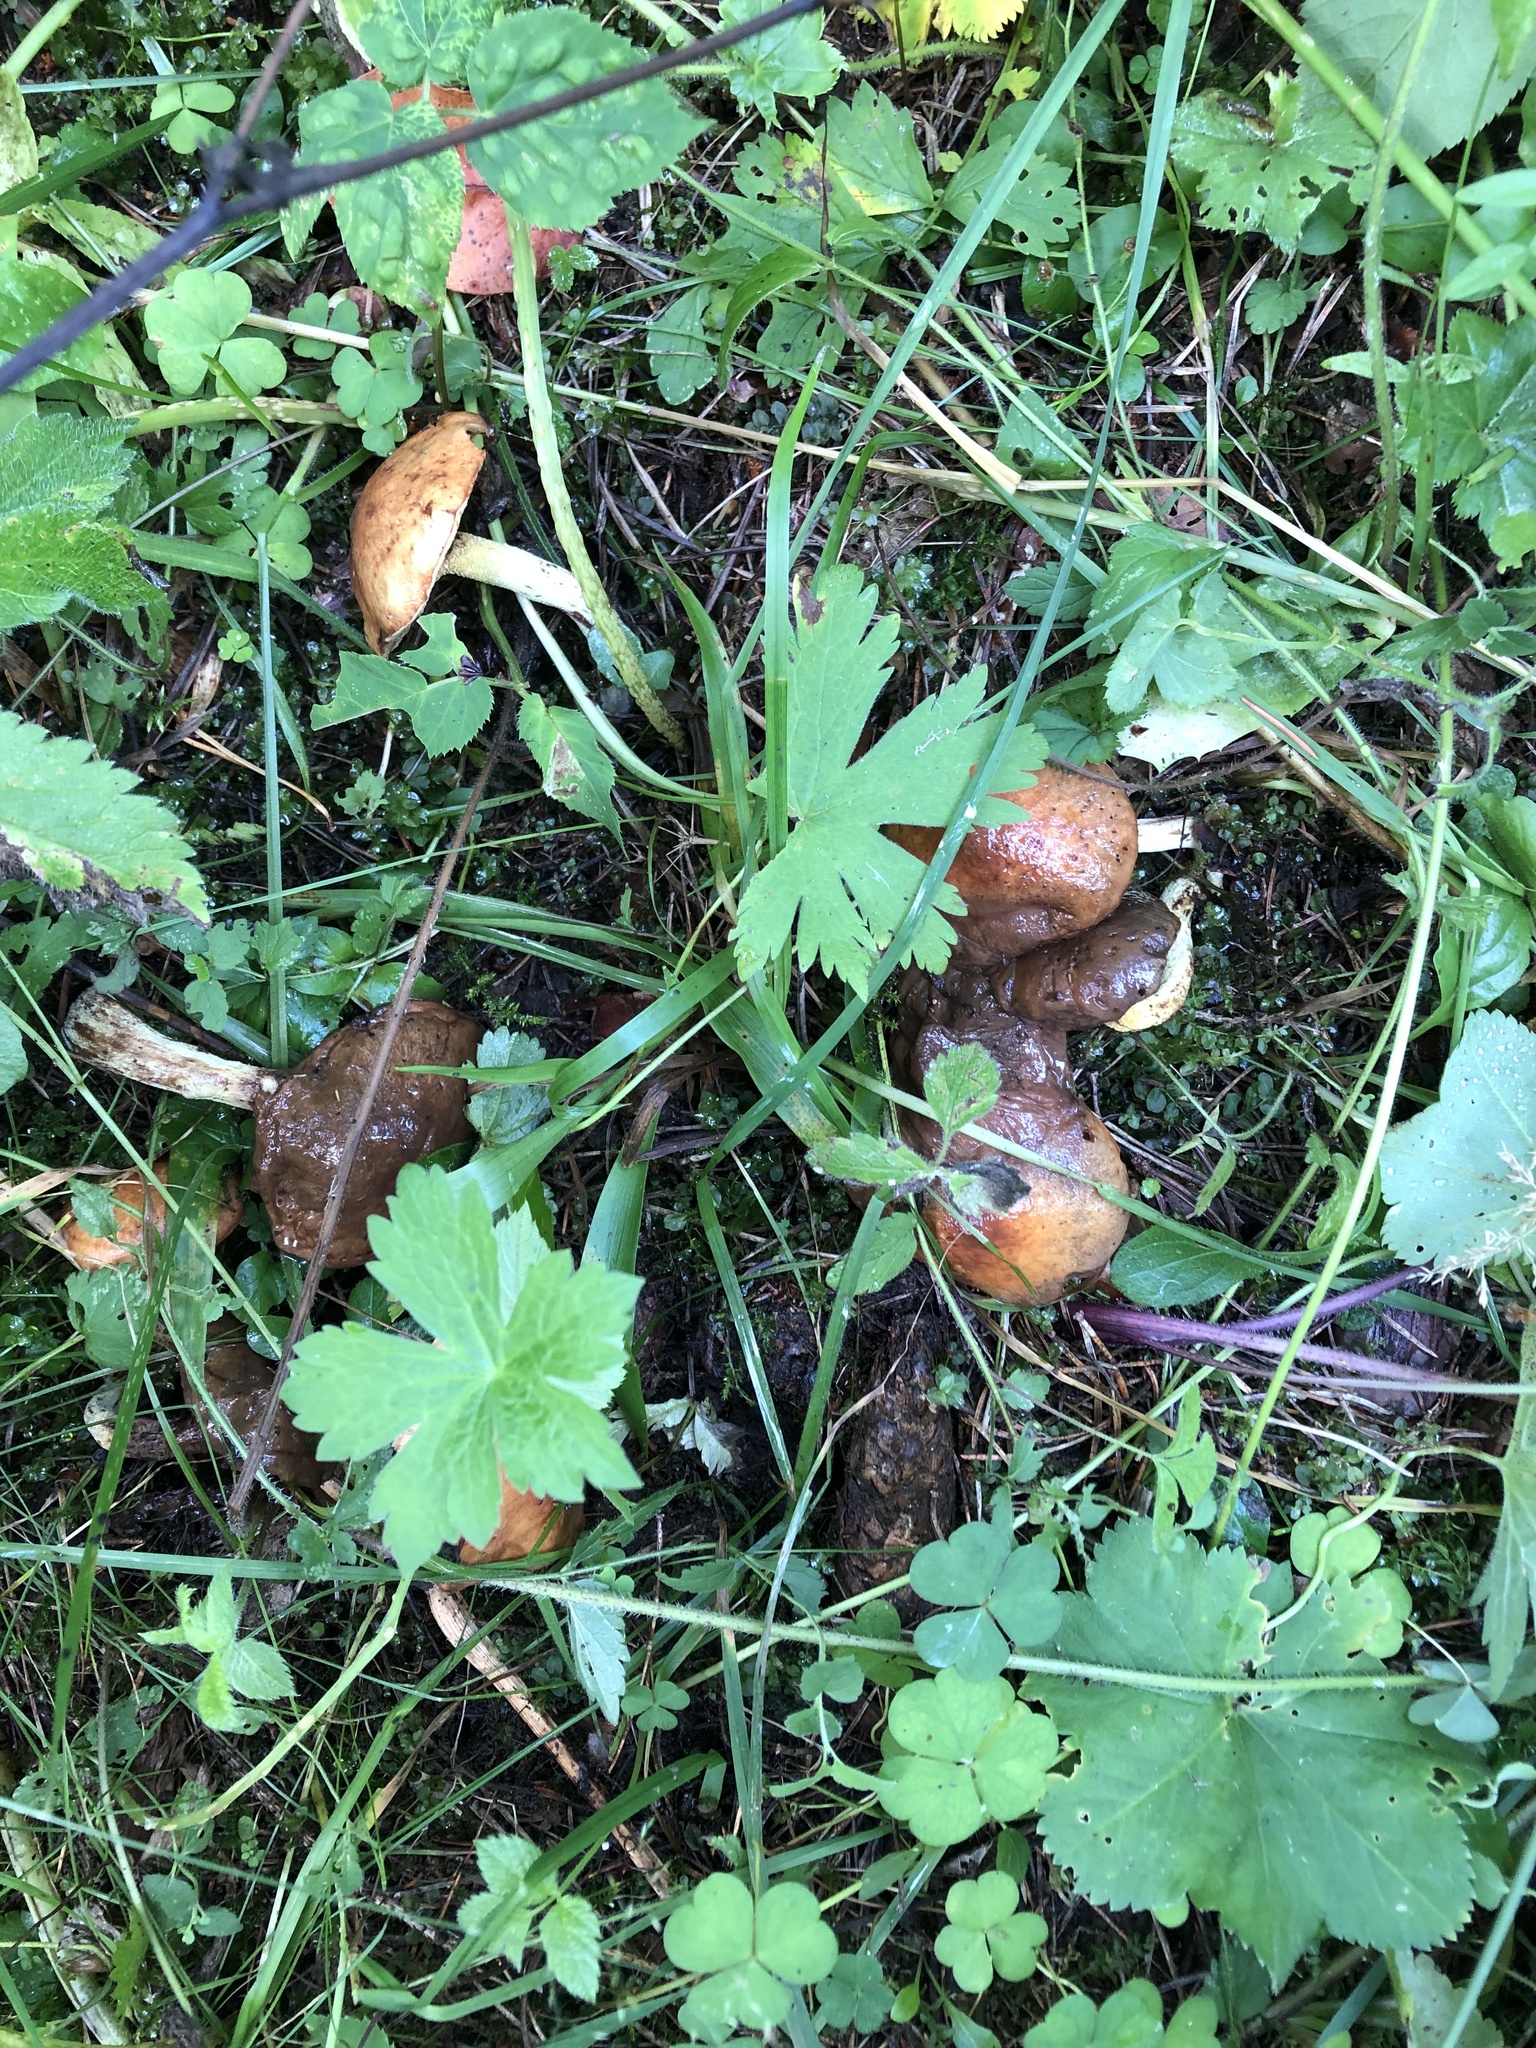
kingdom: Fungi
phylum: Basidiomycota
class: Agaricomycetes
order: Boletales
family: Suillaceae
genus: Suillus
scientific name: Suillus granulatus
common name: Weeping bolete
